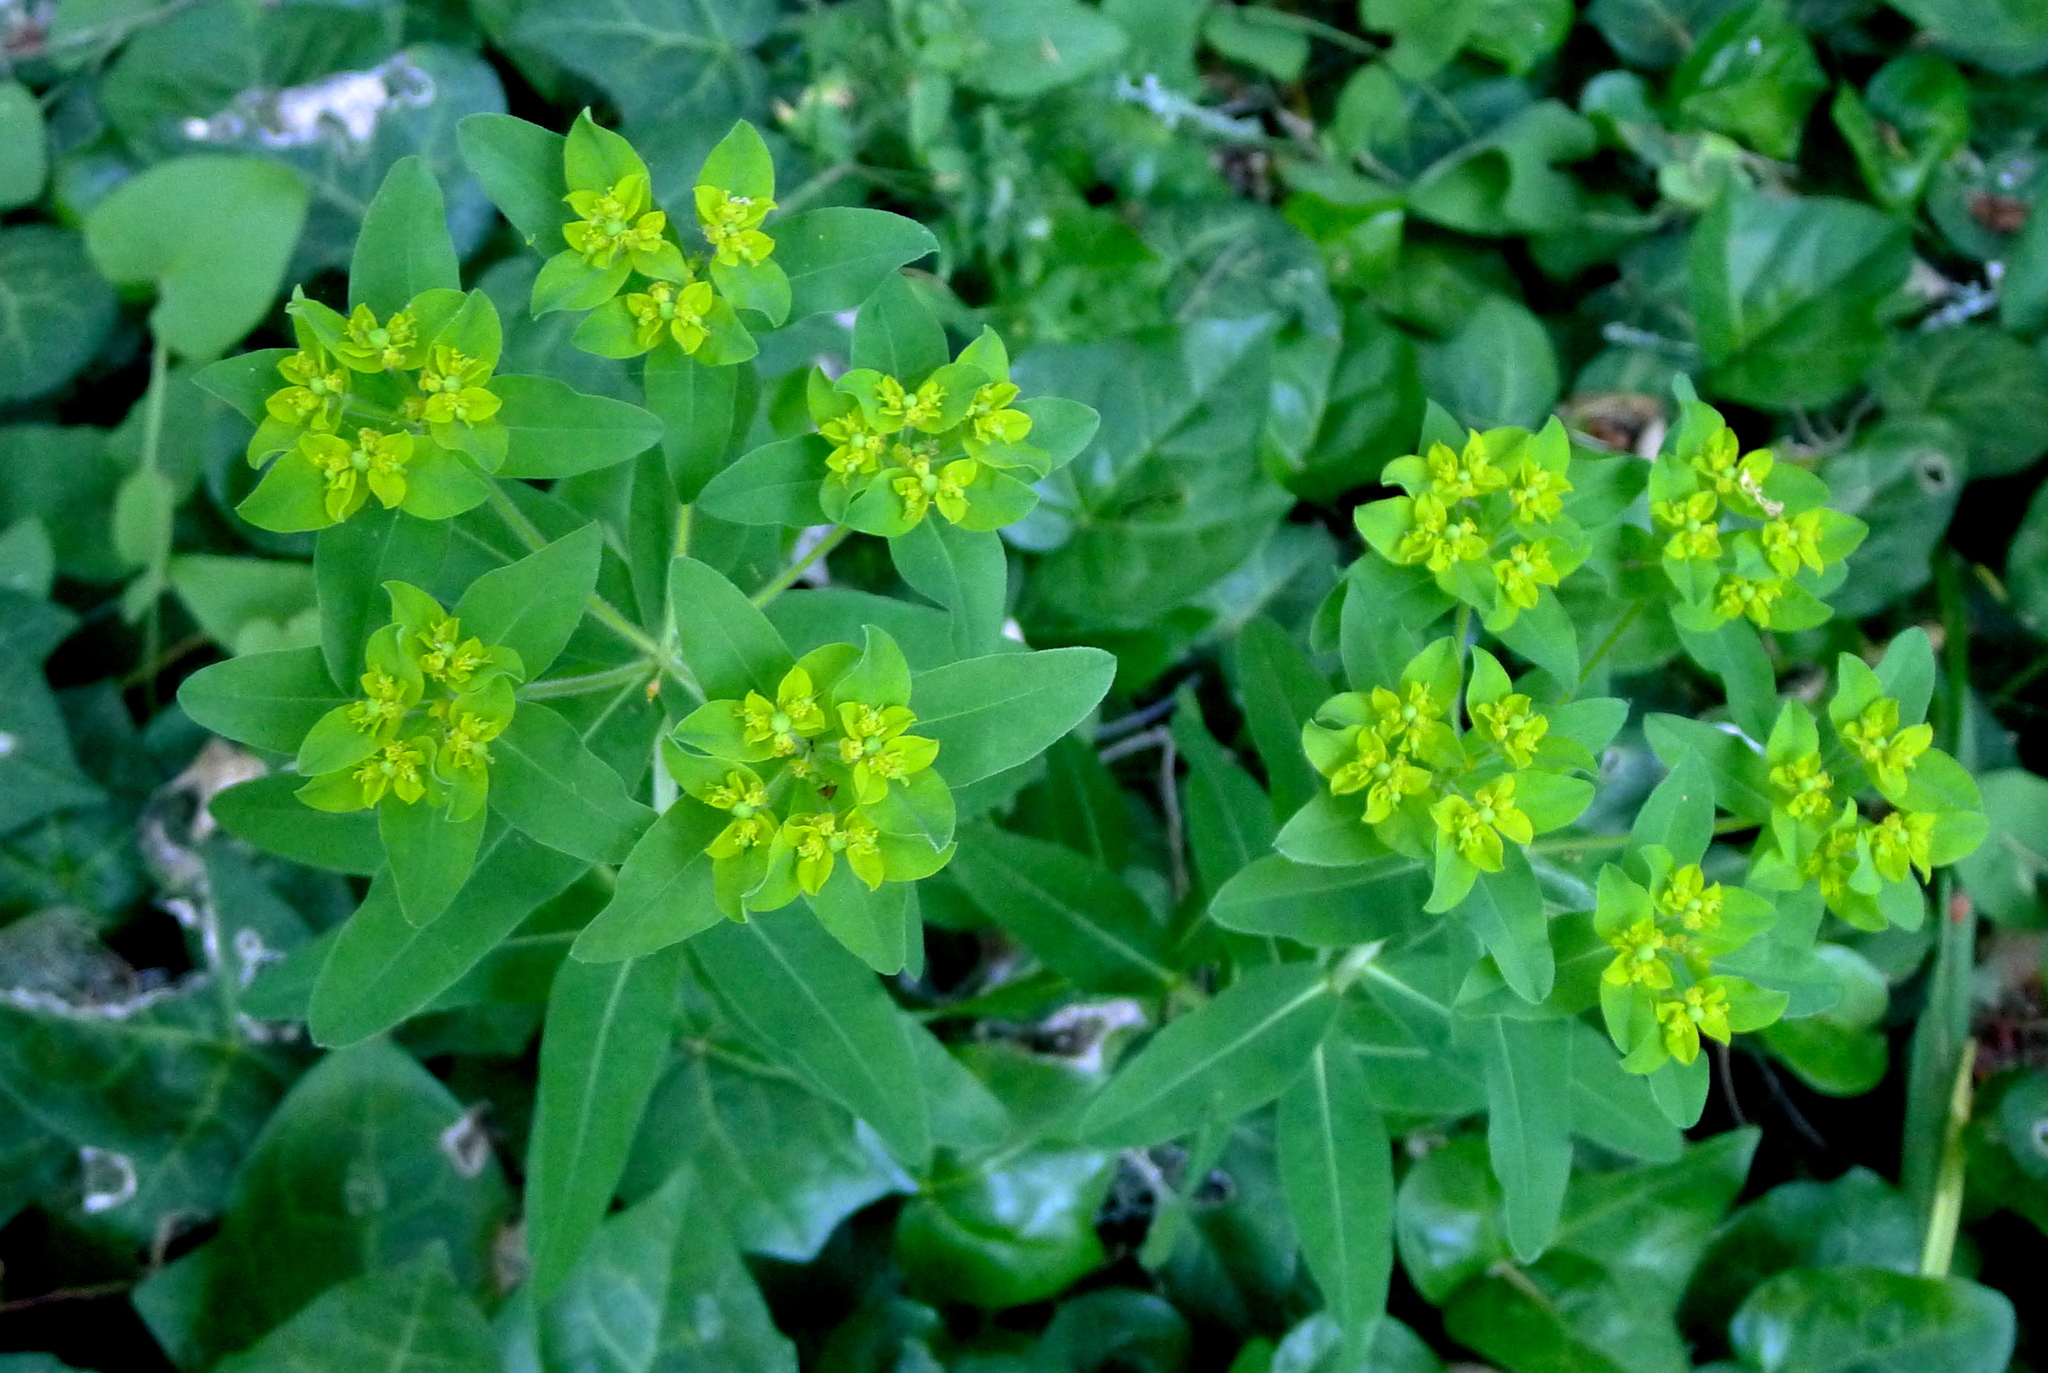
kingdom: Plantae
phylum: Tracheophyta
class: Magnoliopsida
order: Malpighiales
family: Euphorbiaceae
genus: Euphorbia
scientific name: Euphorbia oblongata
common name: Balkan spurge
